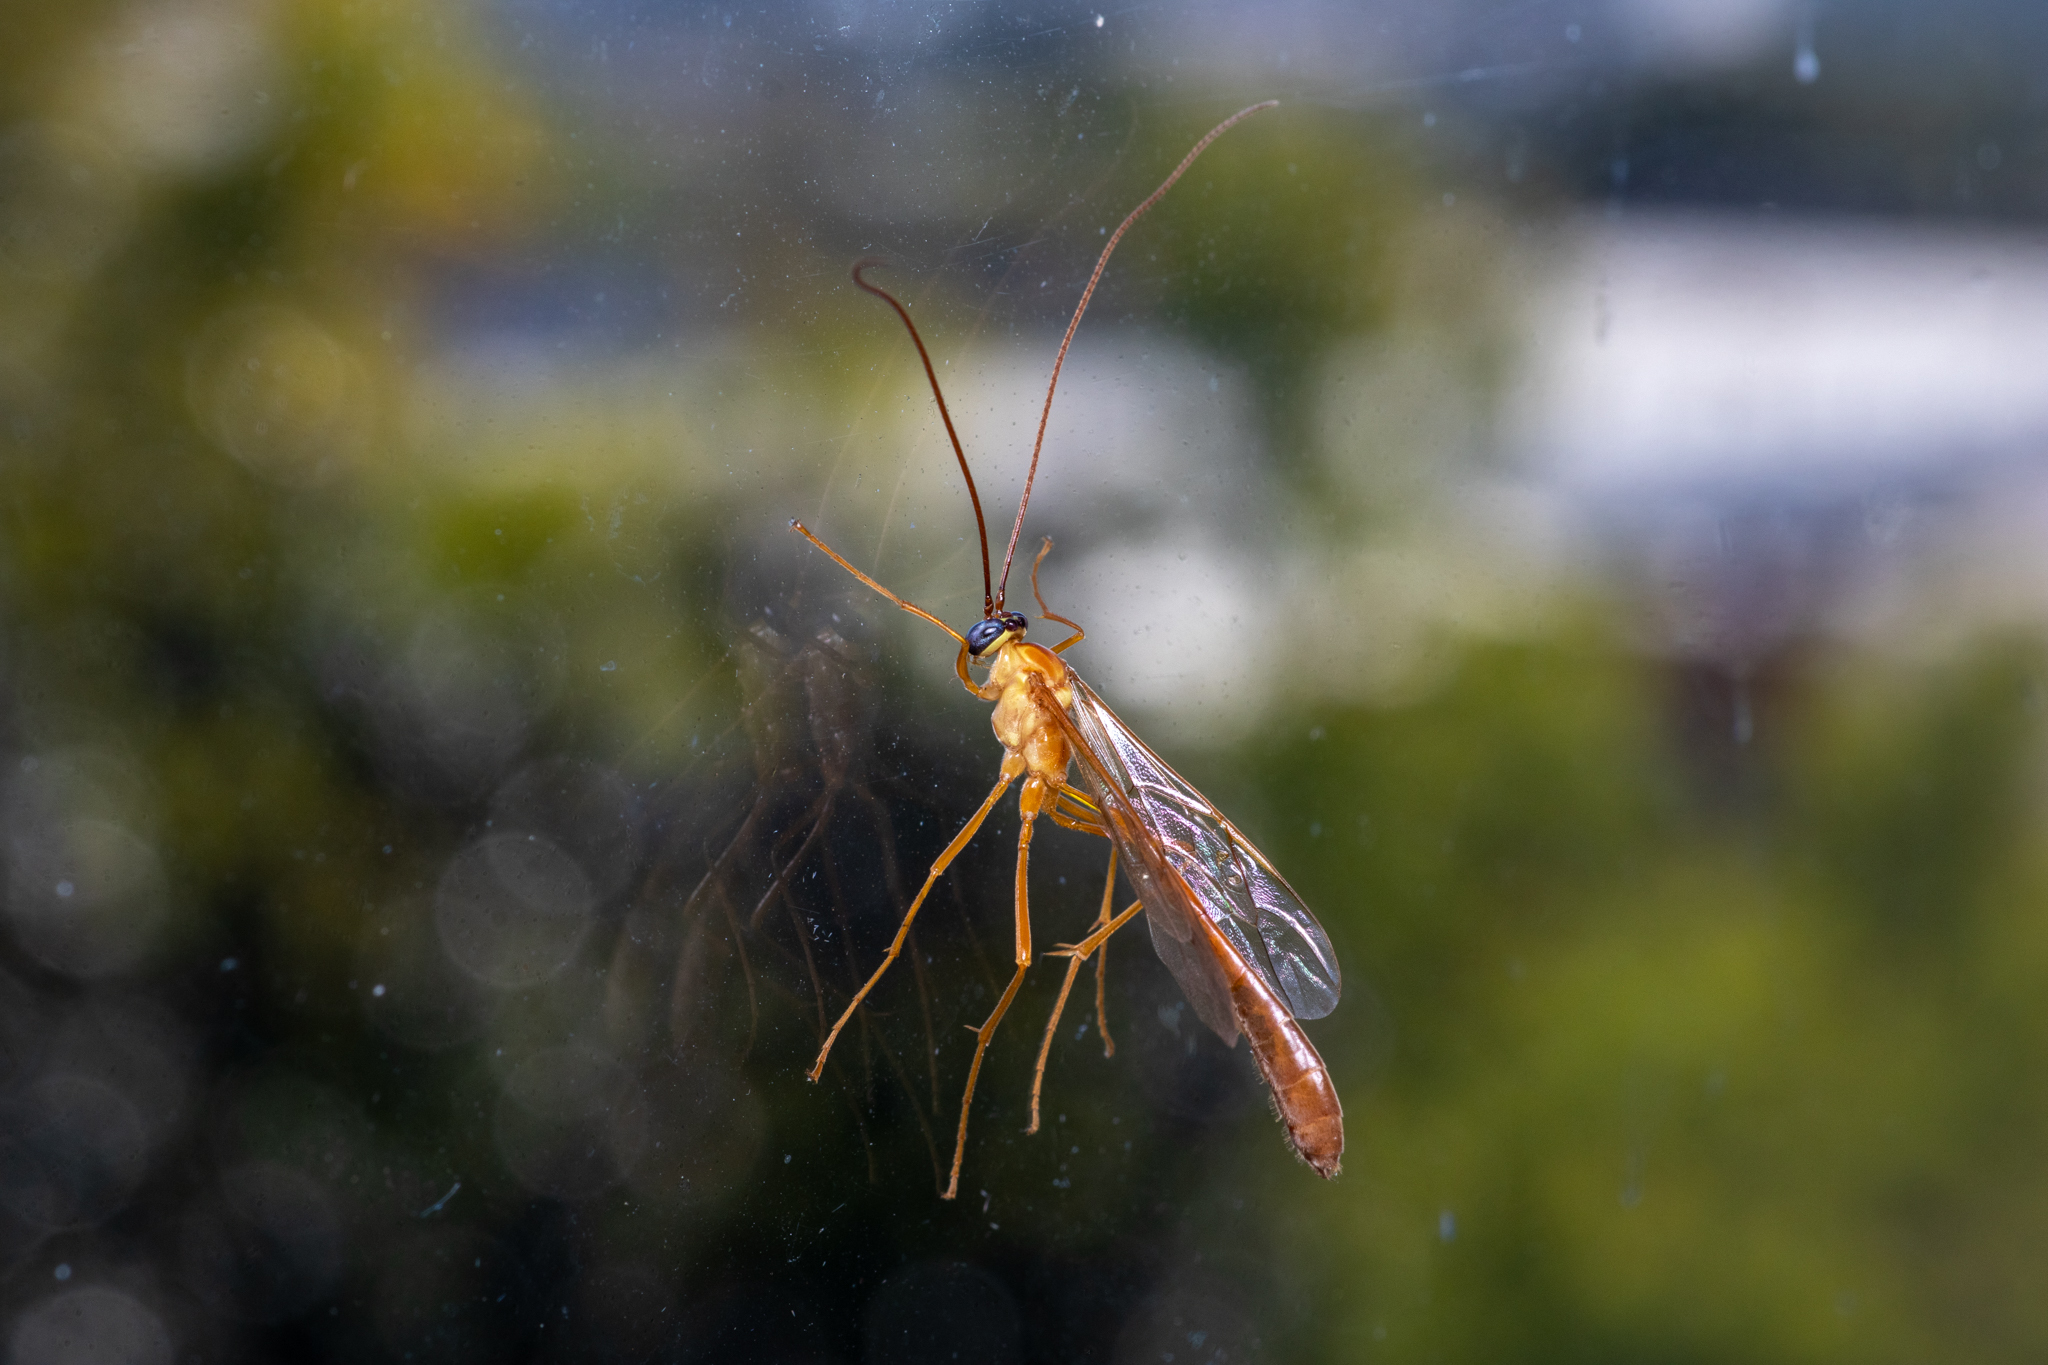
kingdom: Animalia
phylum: Arthropoda
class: Insecta
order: Hymenoptera
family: Ichneumonidae
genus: Enicospilus
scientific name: Enicospilus purgatus
